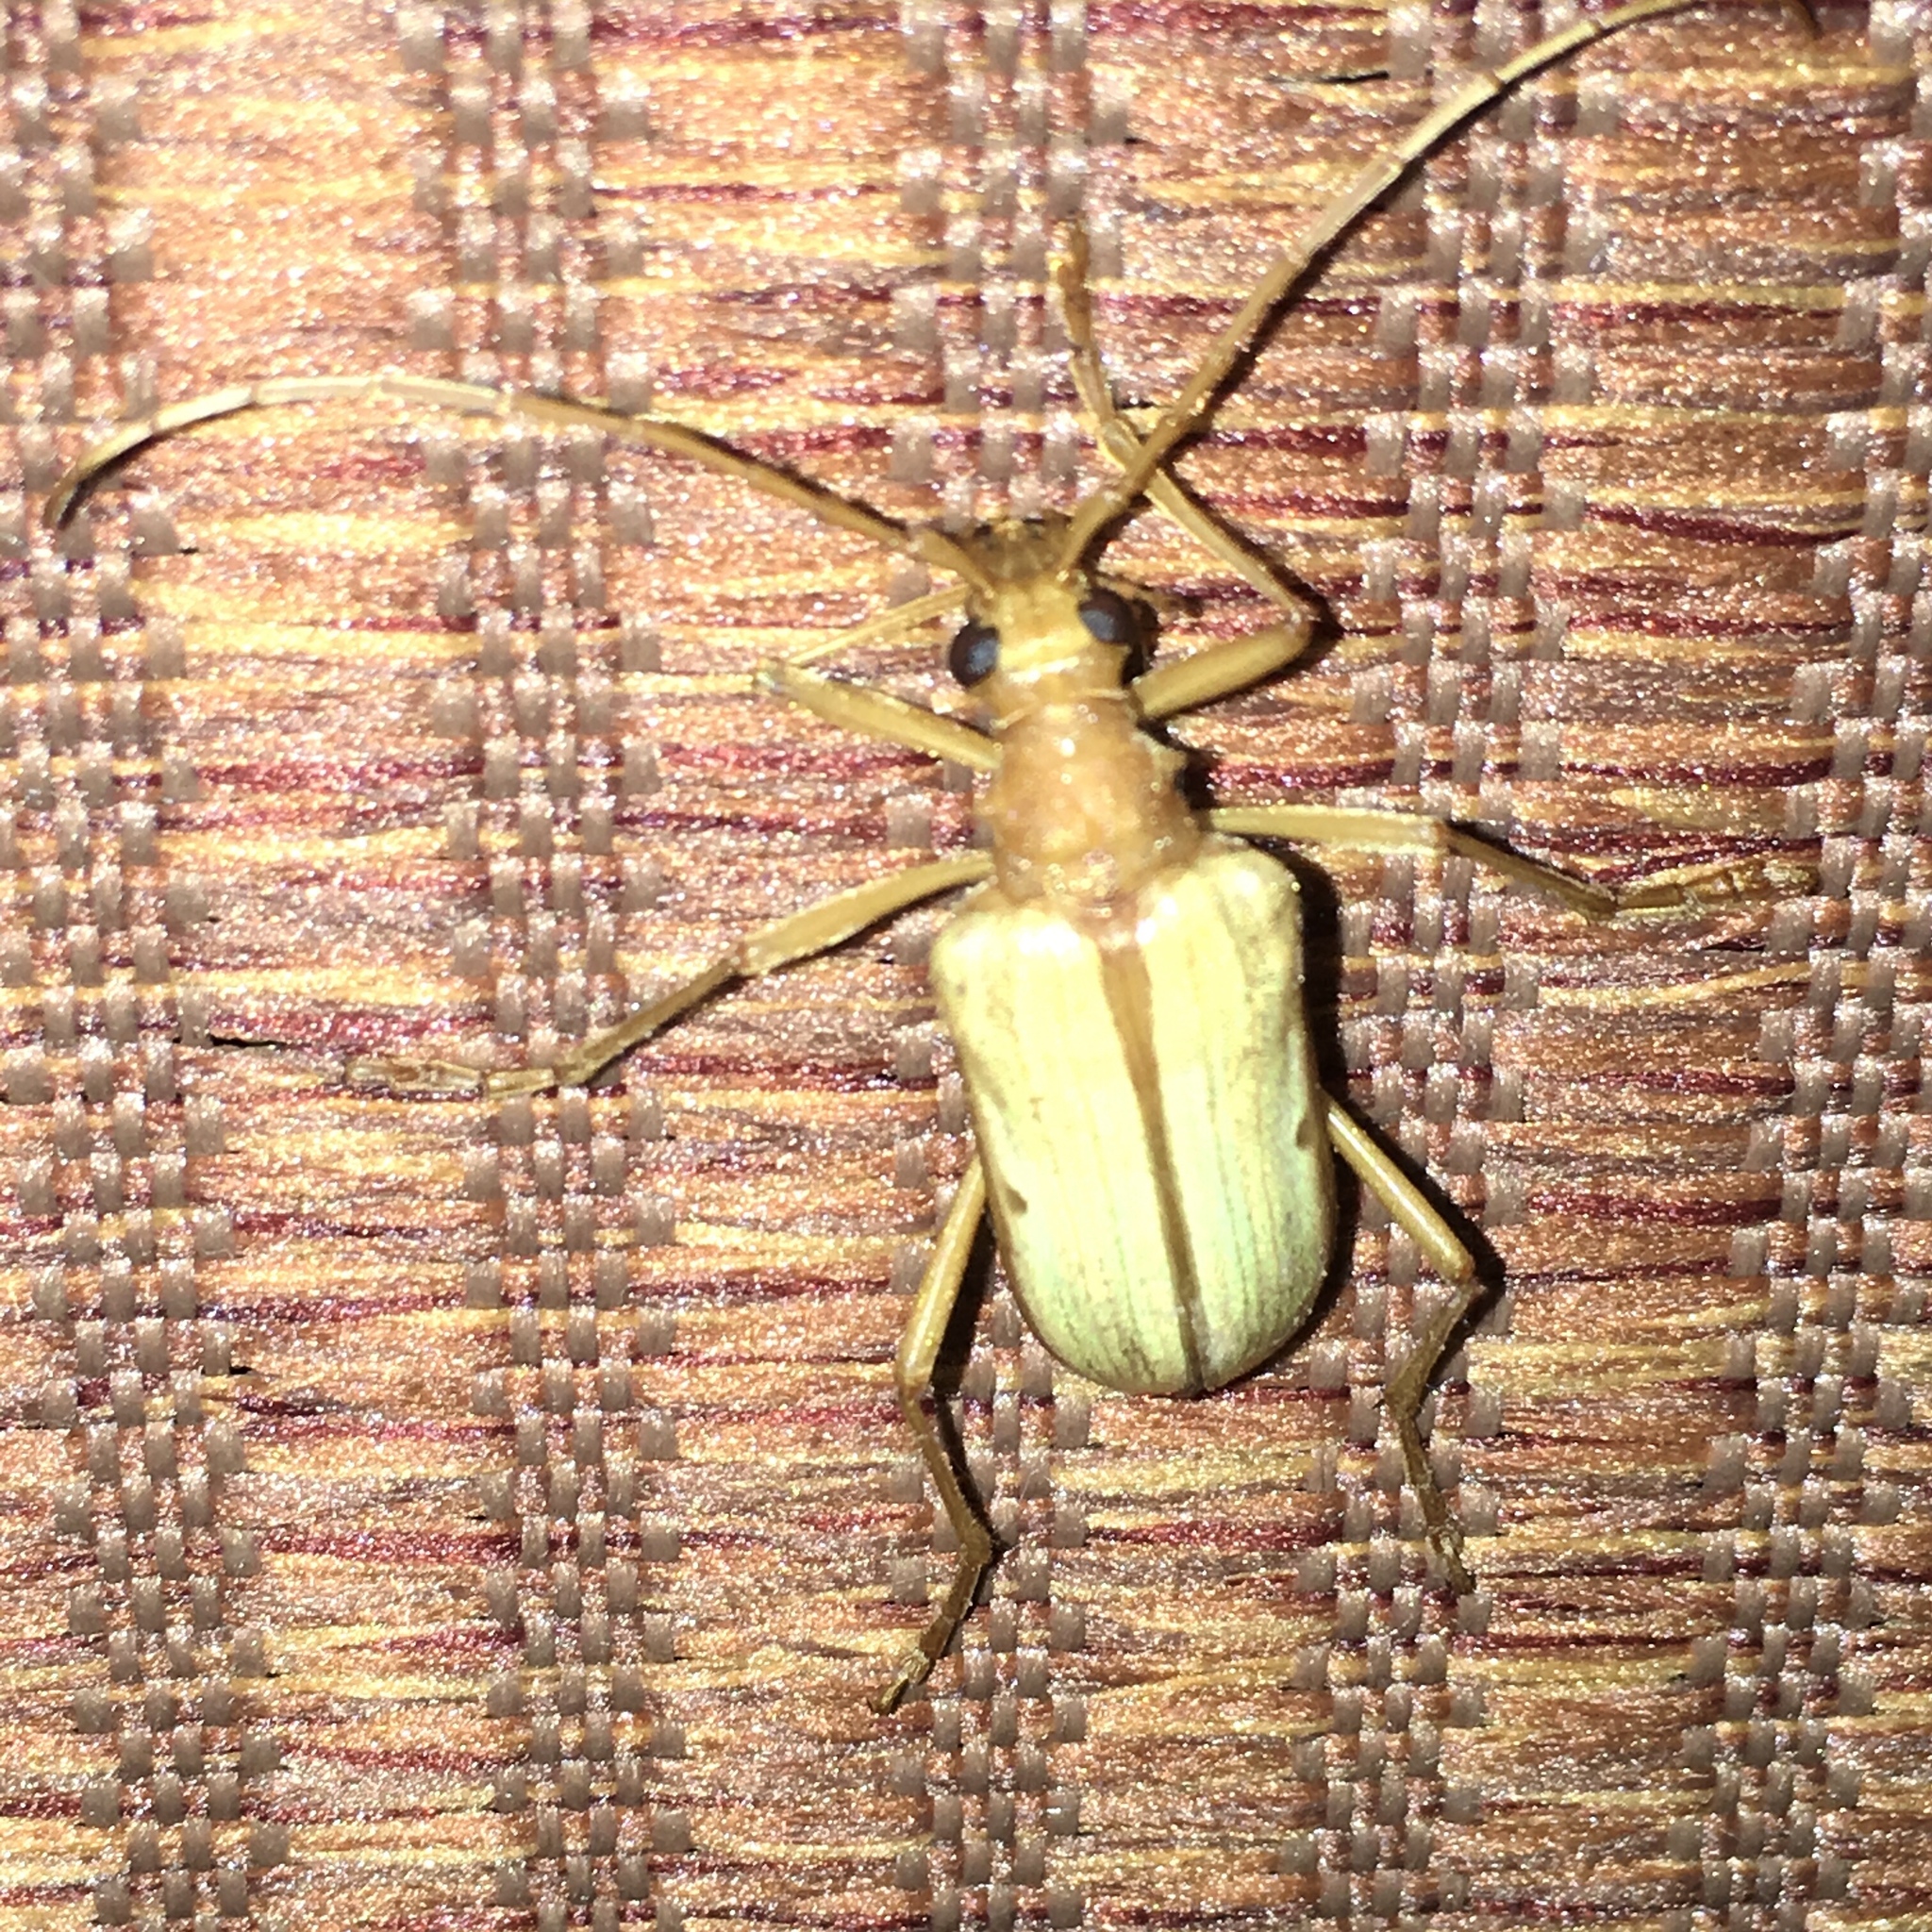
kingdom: Animalia
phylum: Arthropoda
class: Insecta
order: Coleoptera
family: Cerambycidae
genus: Centrodera
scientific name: Centrodera spurca
